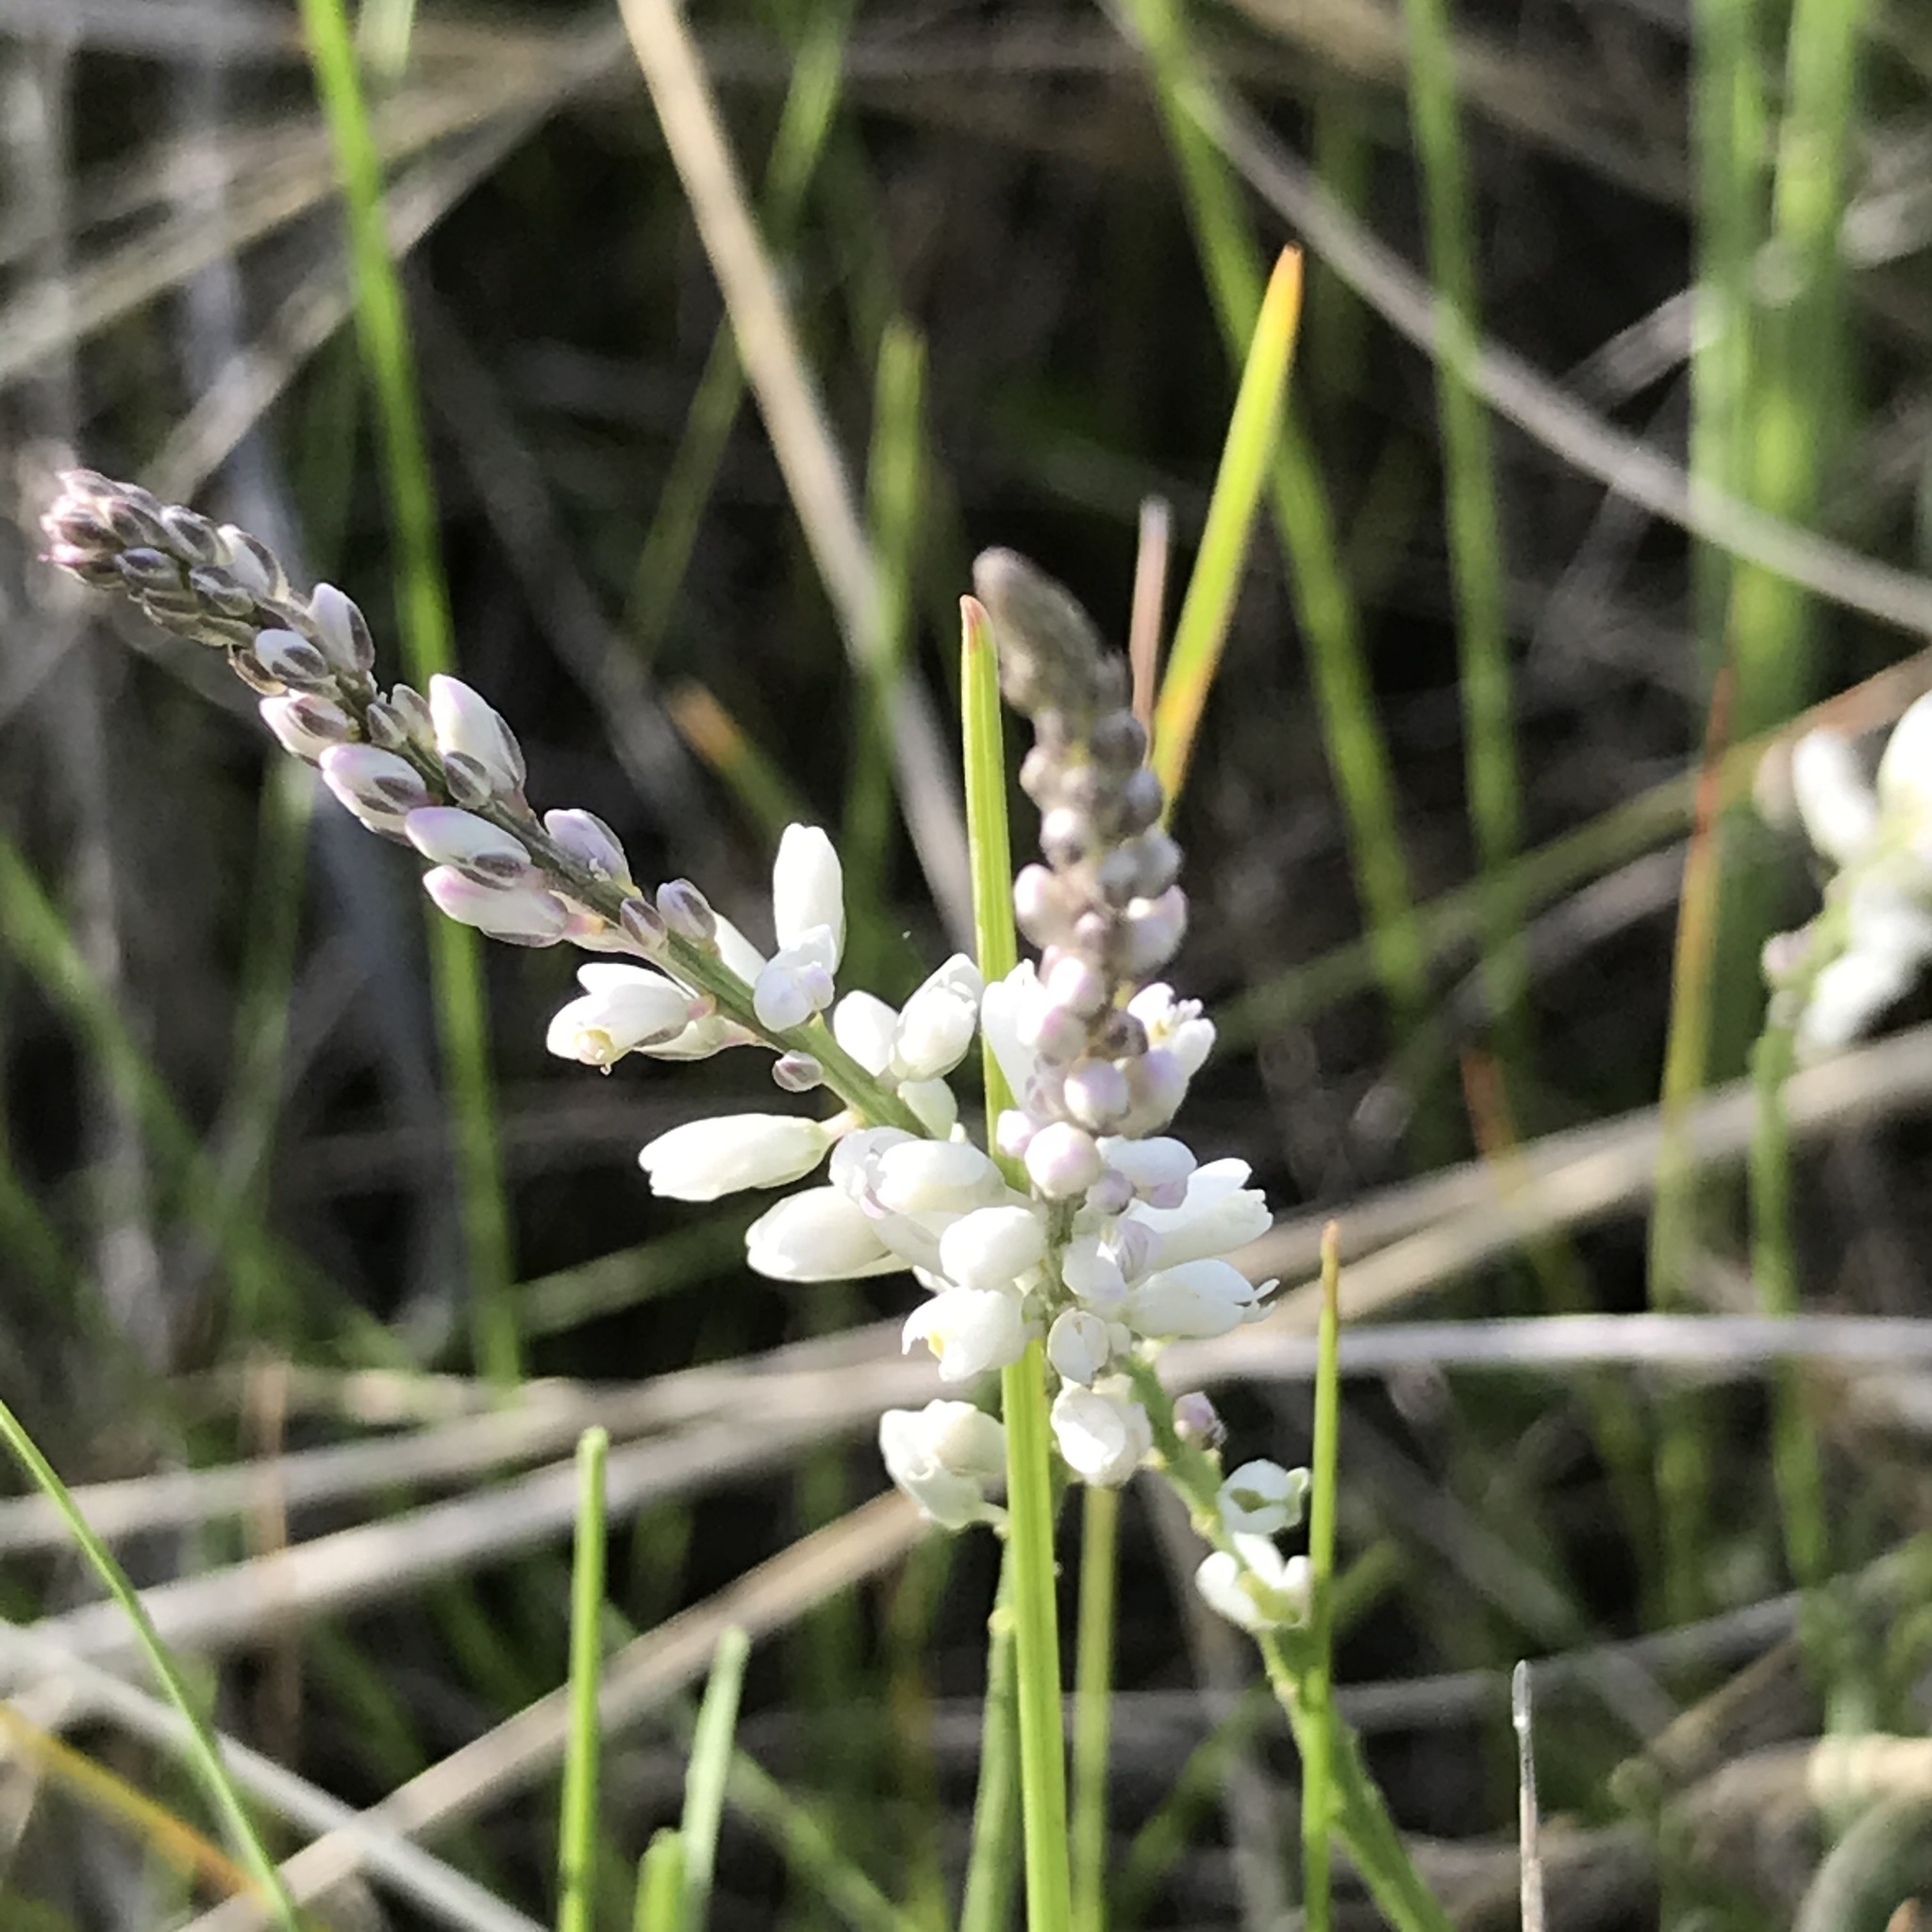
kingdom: Plantae
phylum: Tracheophyta
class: Magnoliopsida
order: Fabales
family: Polygalaceae
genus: Polygala
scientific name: Polygala alba
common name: White milkwort
